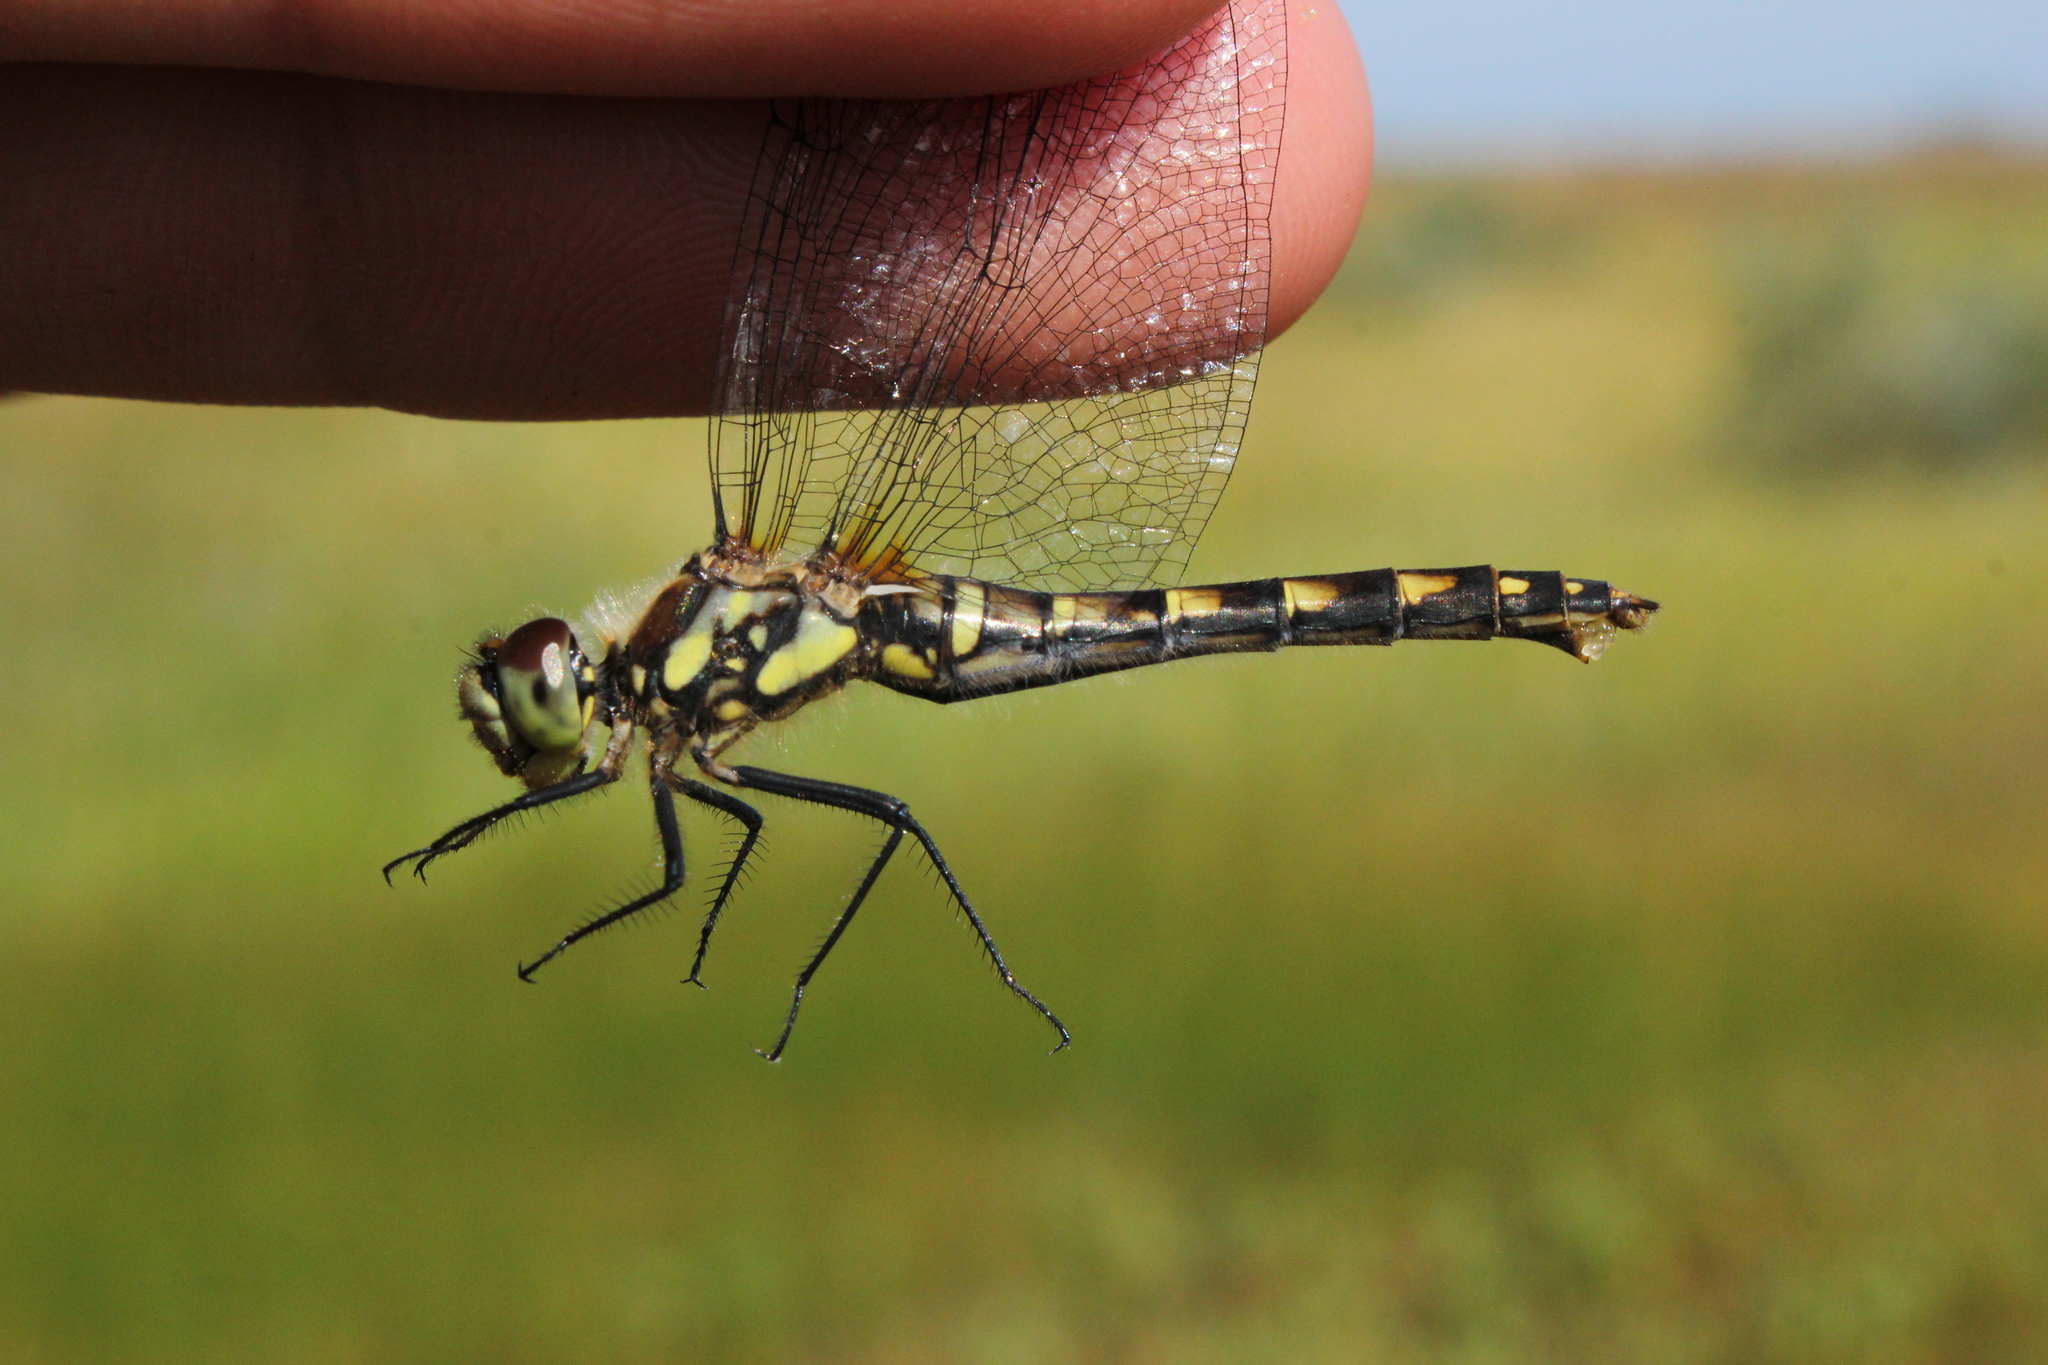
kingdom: Animalia
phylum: Arthropoda
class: Insecta
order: Odonata
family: Libellulidae
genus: Sympetrum
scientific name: Sympetrum danae
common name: Black darter
